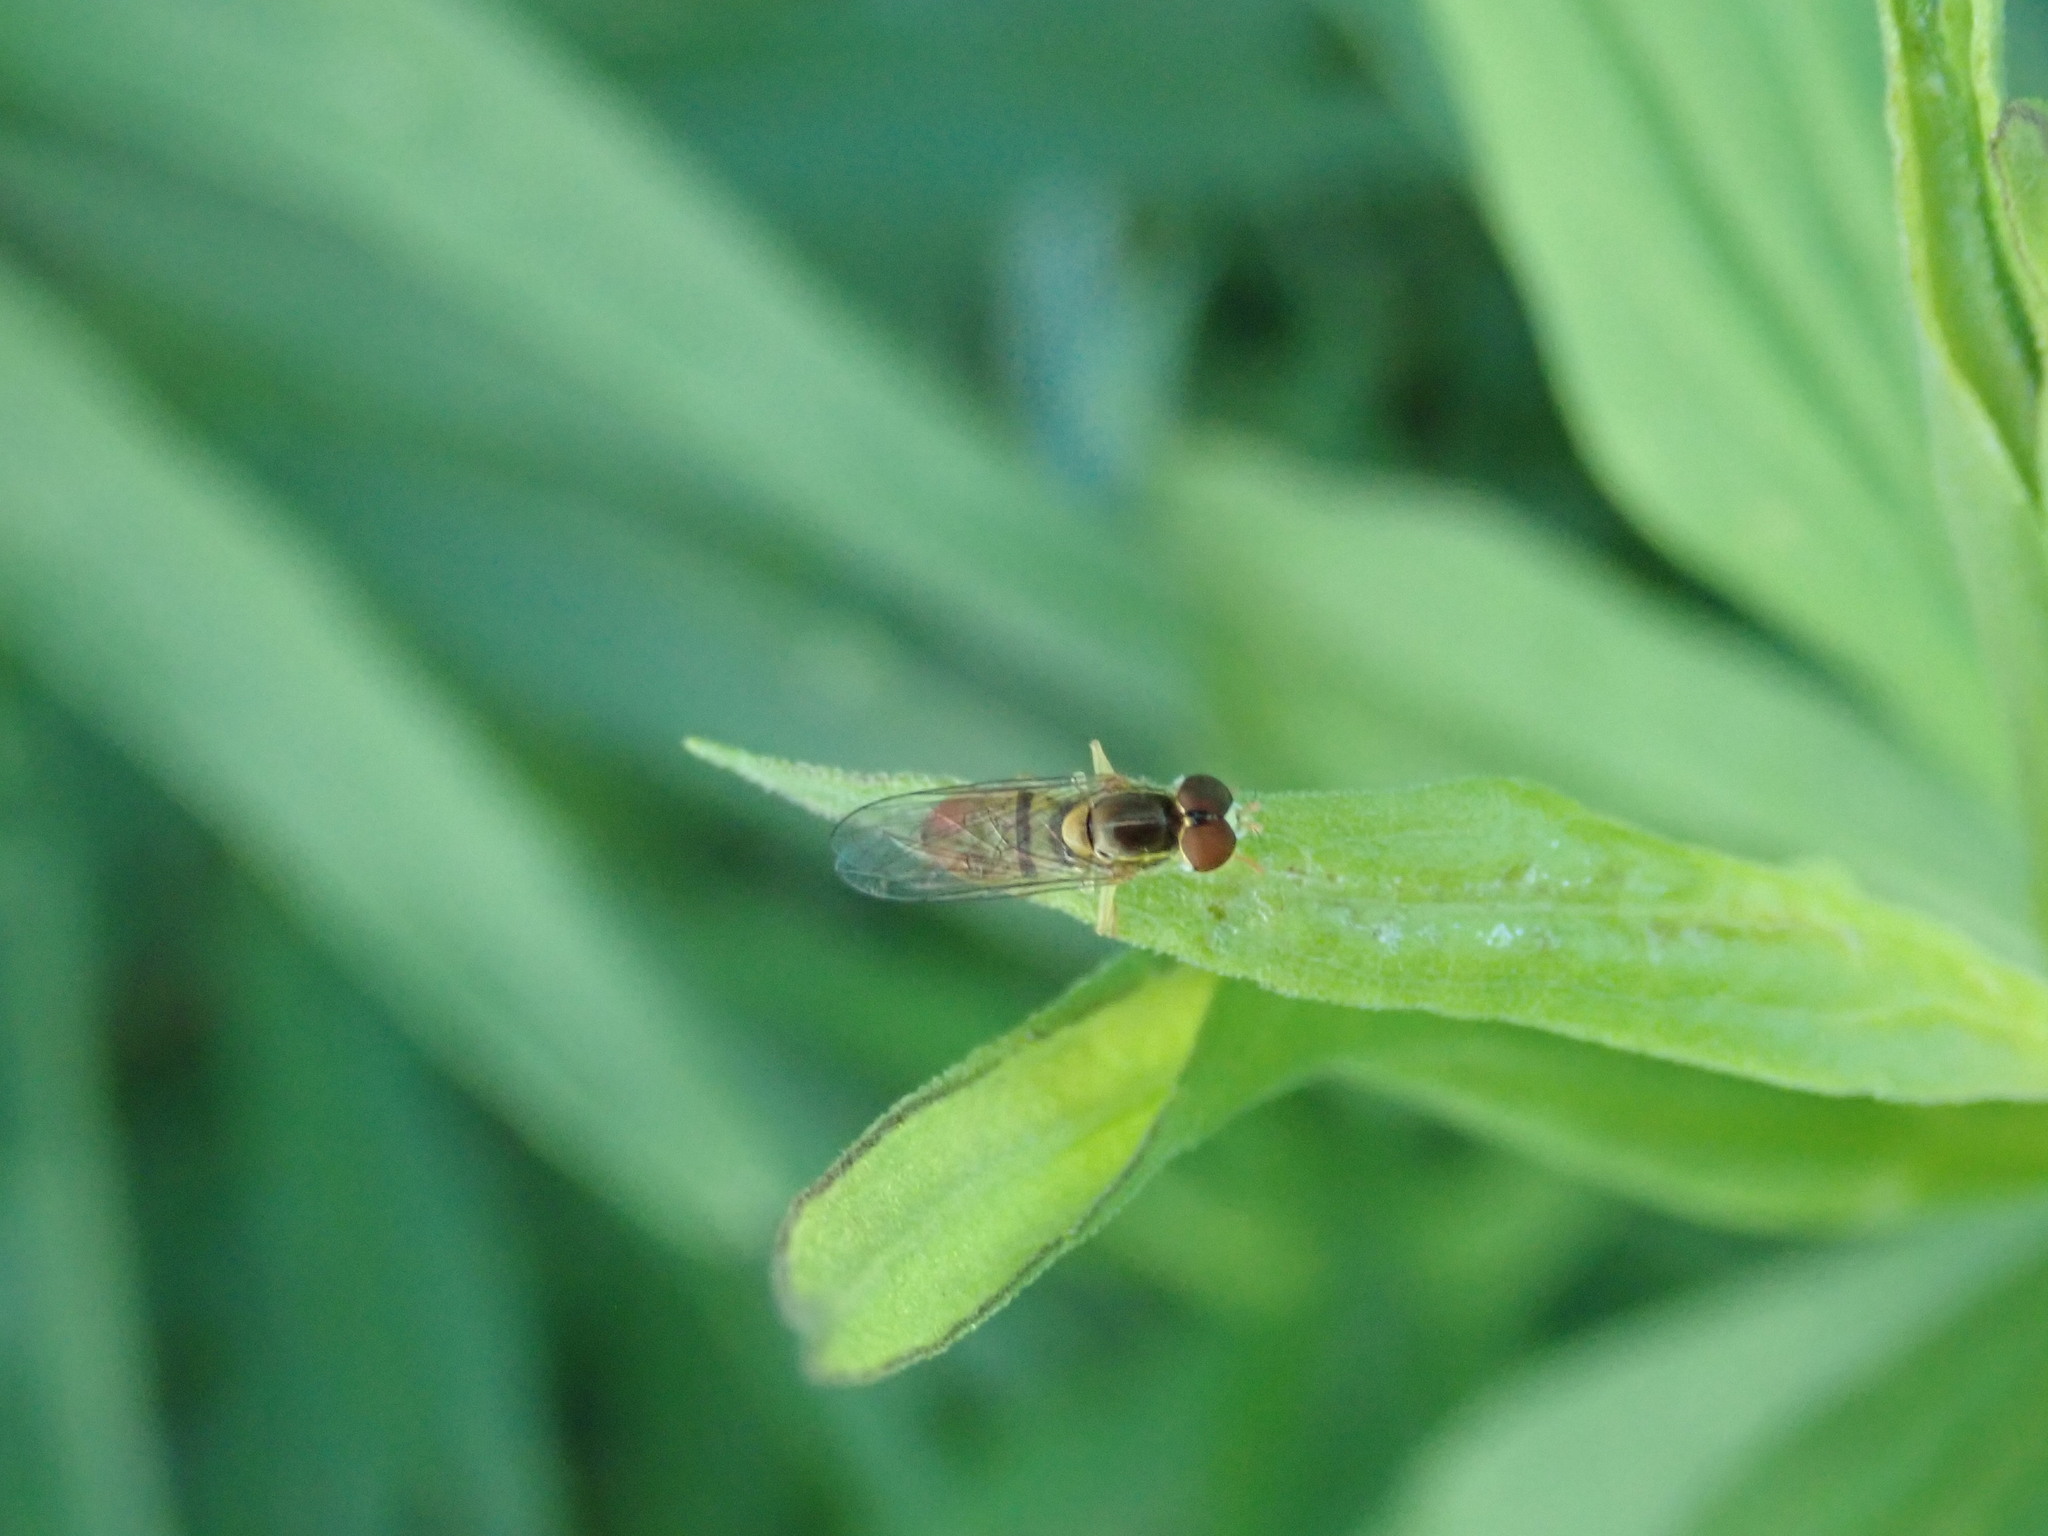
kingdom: Animalia
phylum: Arthropoda
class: Insecta
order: Diptera
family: Syrphidae
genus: Toxomerus
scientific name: Toxomerus marginatus
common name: Syrphid fly
